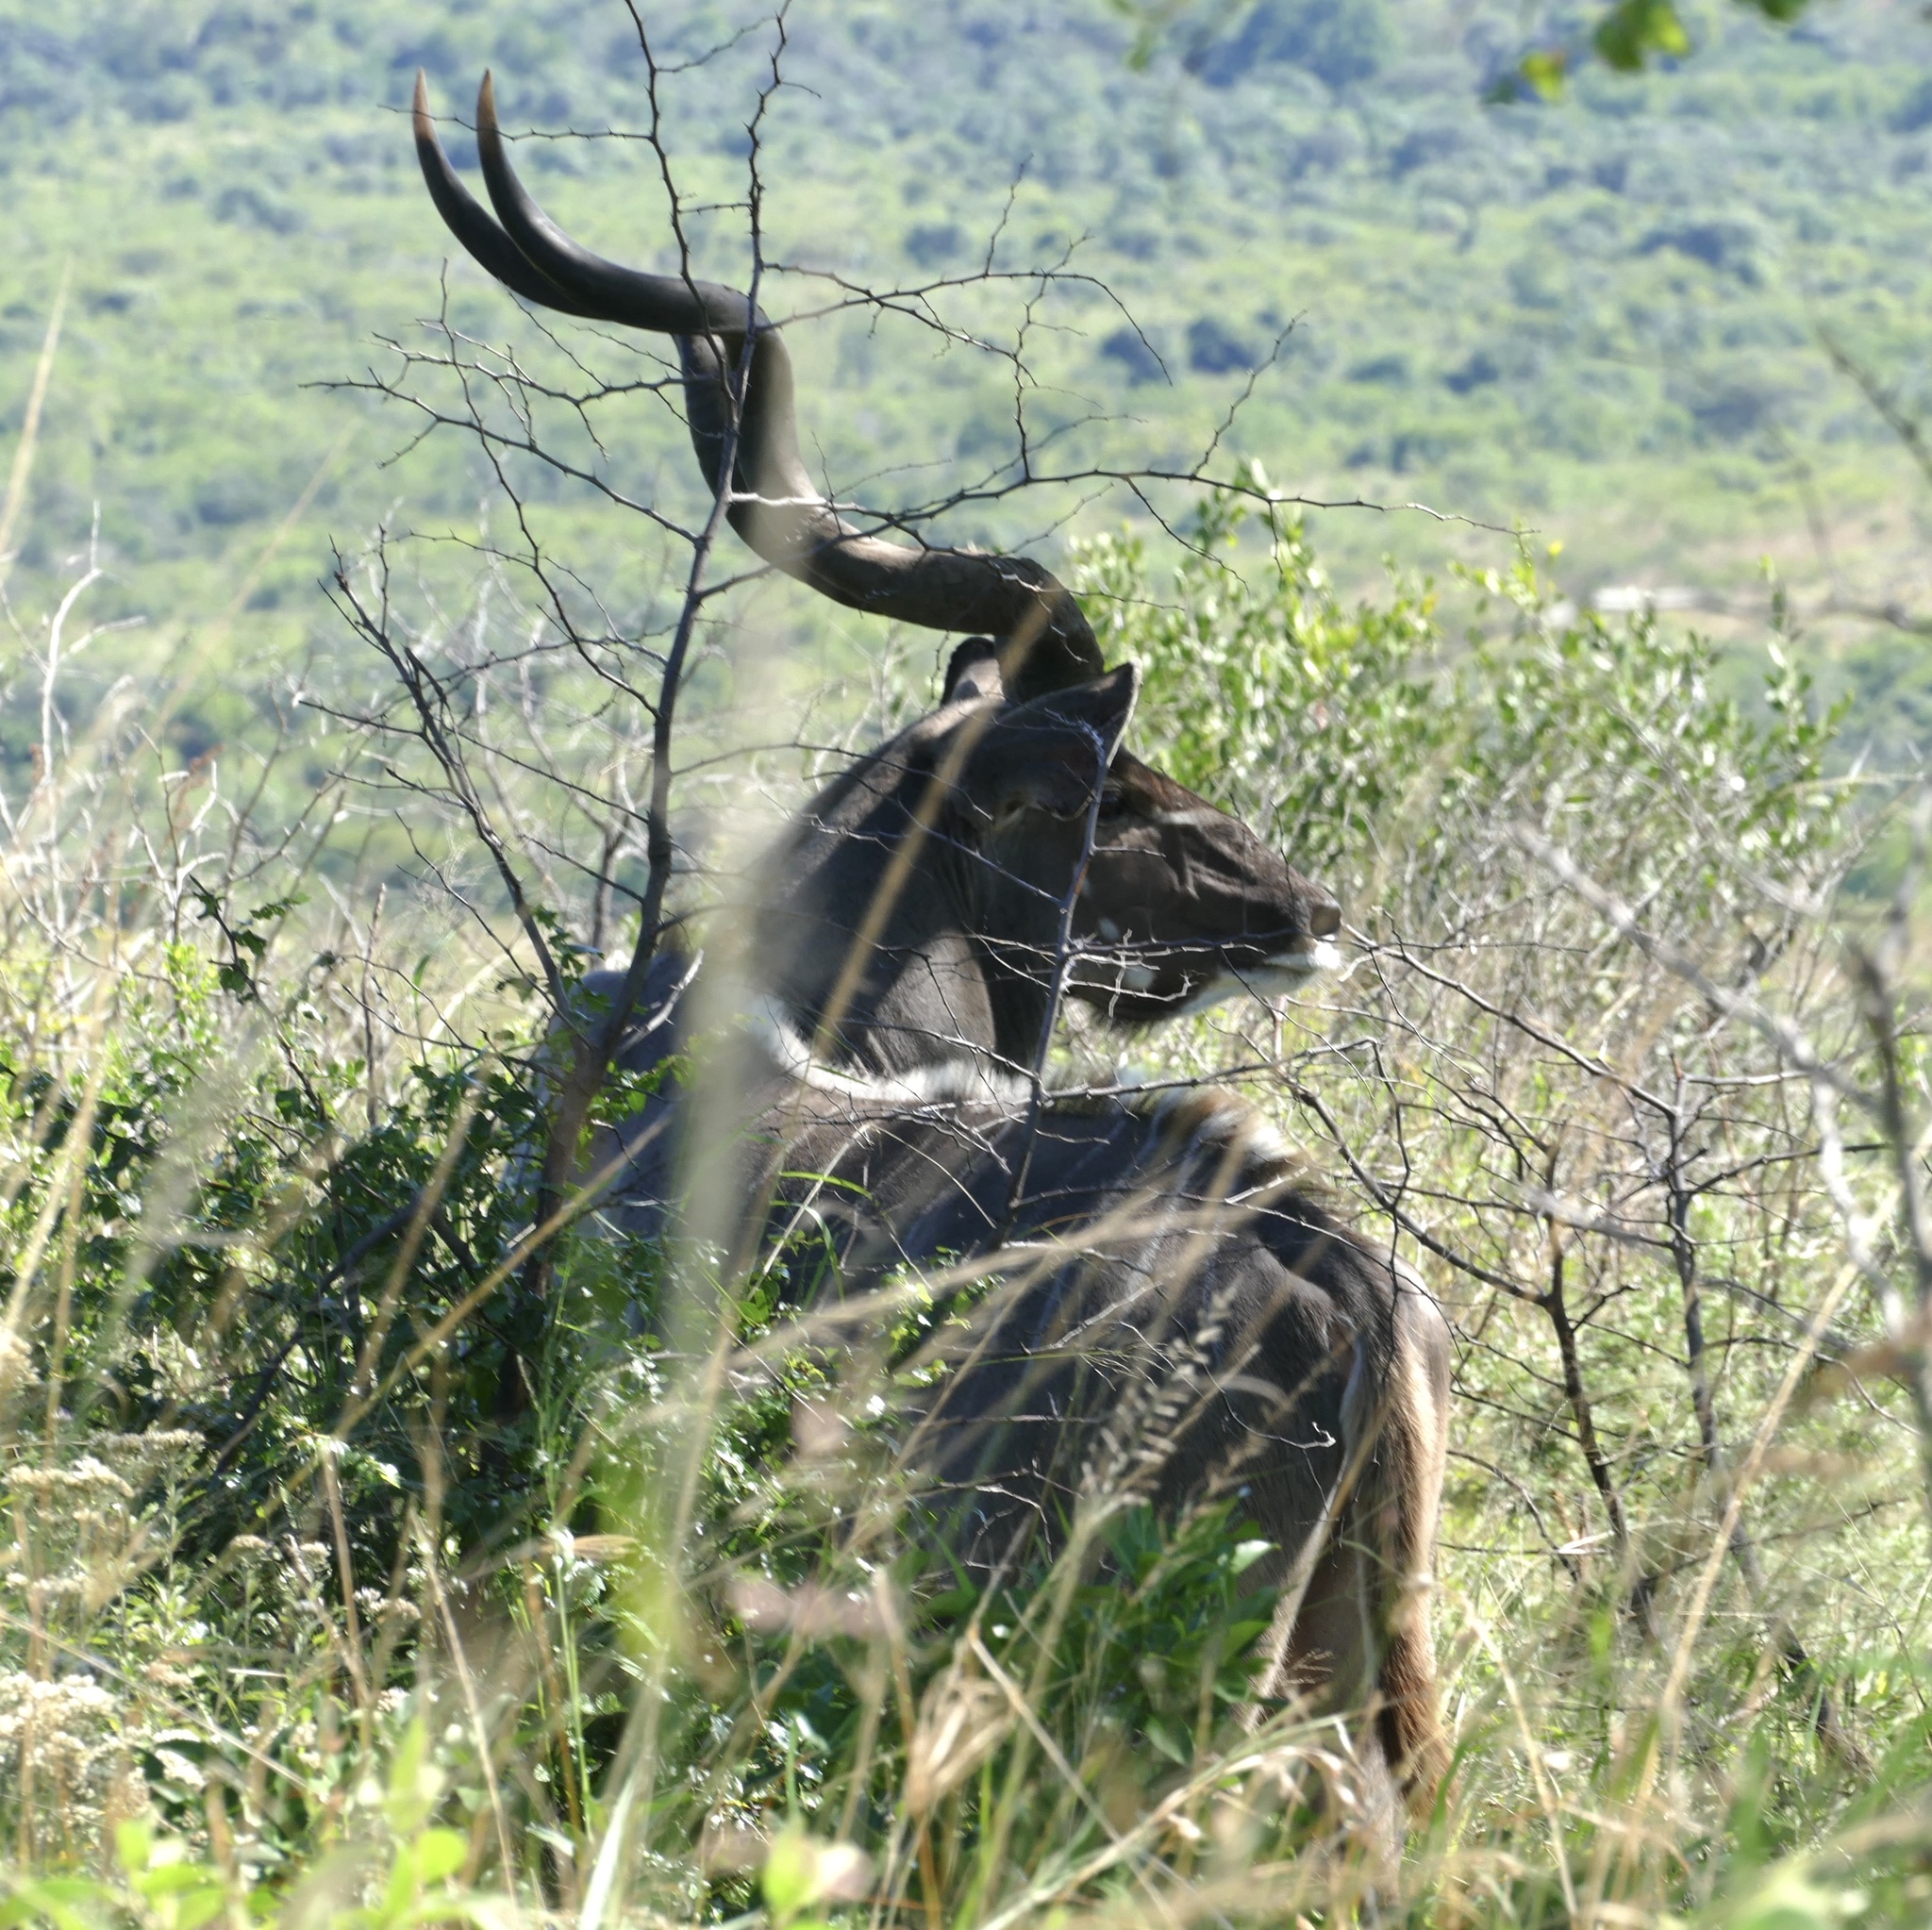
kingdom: Animalia
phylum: Chordata
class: Mammalia
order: Artiodactyla
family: Bovidae
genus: Tragelaphus
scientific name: Tragelaphus strepsiceros
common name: Greater kudu
